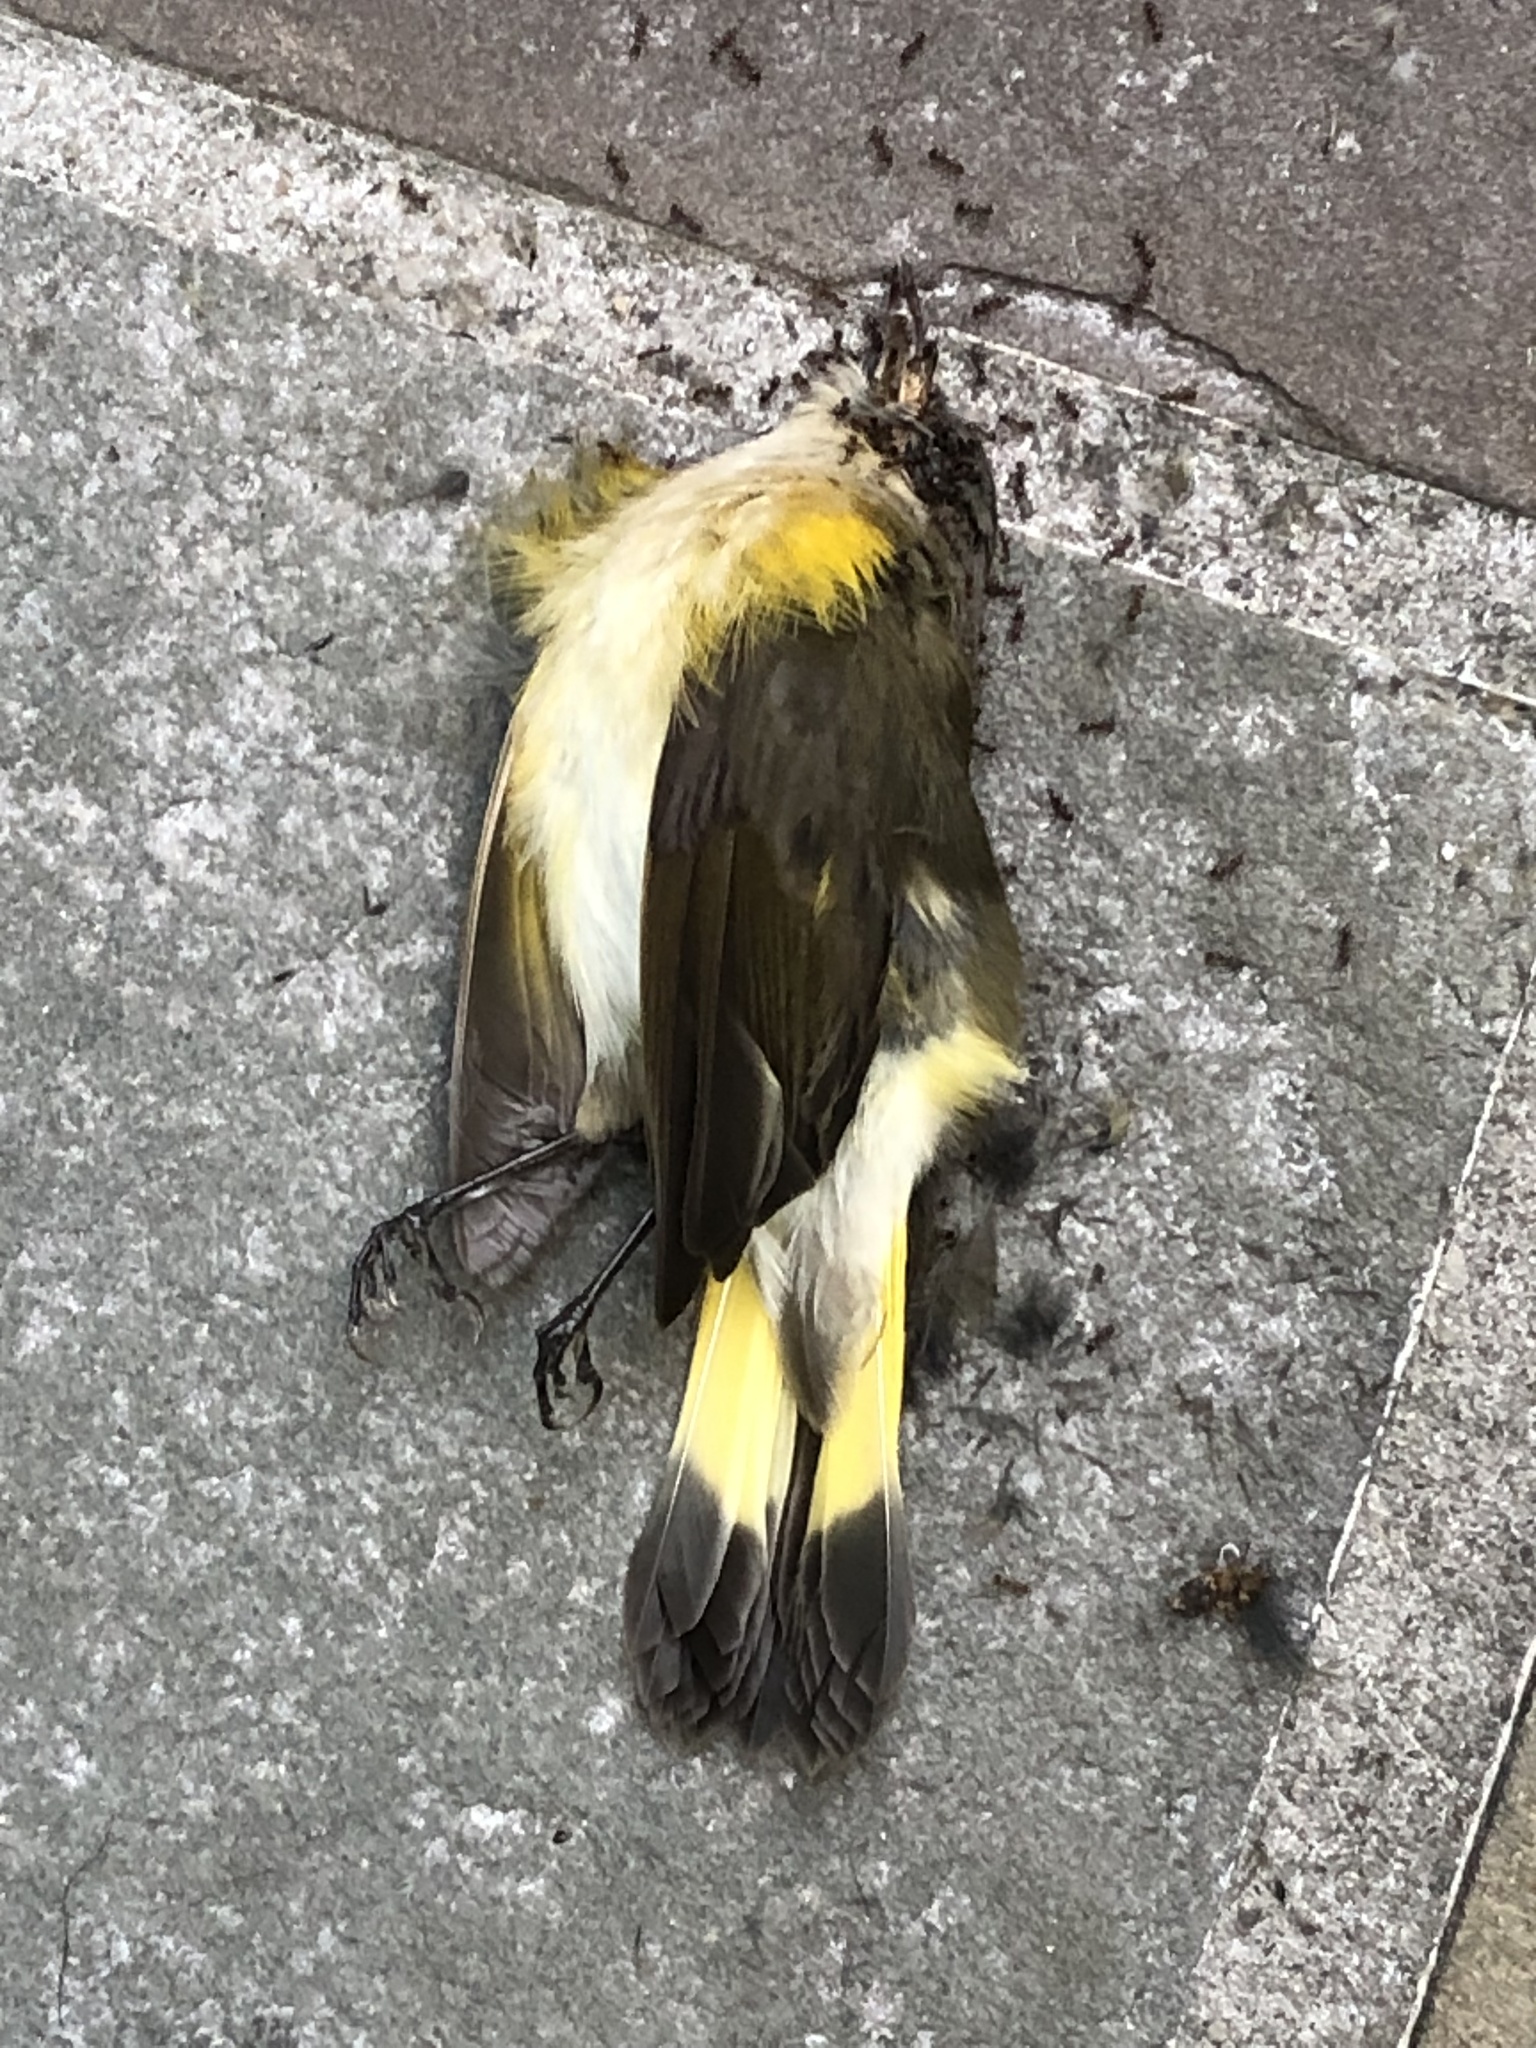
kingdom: Animalia
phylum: Chordata
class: Aves
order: Passeriformes
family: Parulidae
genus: Setophaga
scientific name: Setophaga ruticilla
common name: American redstart
